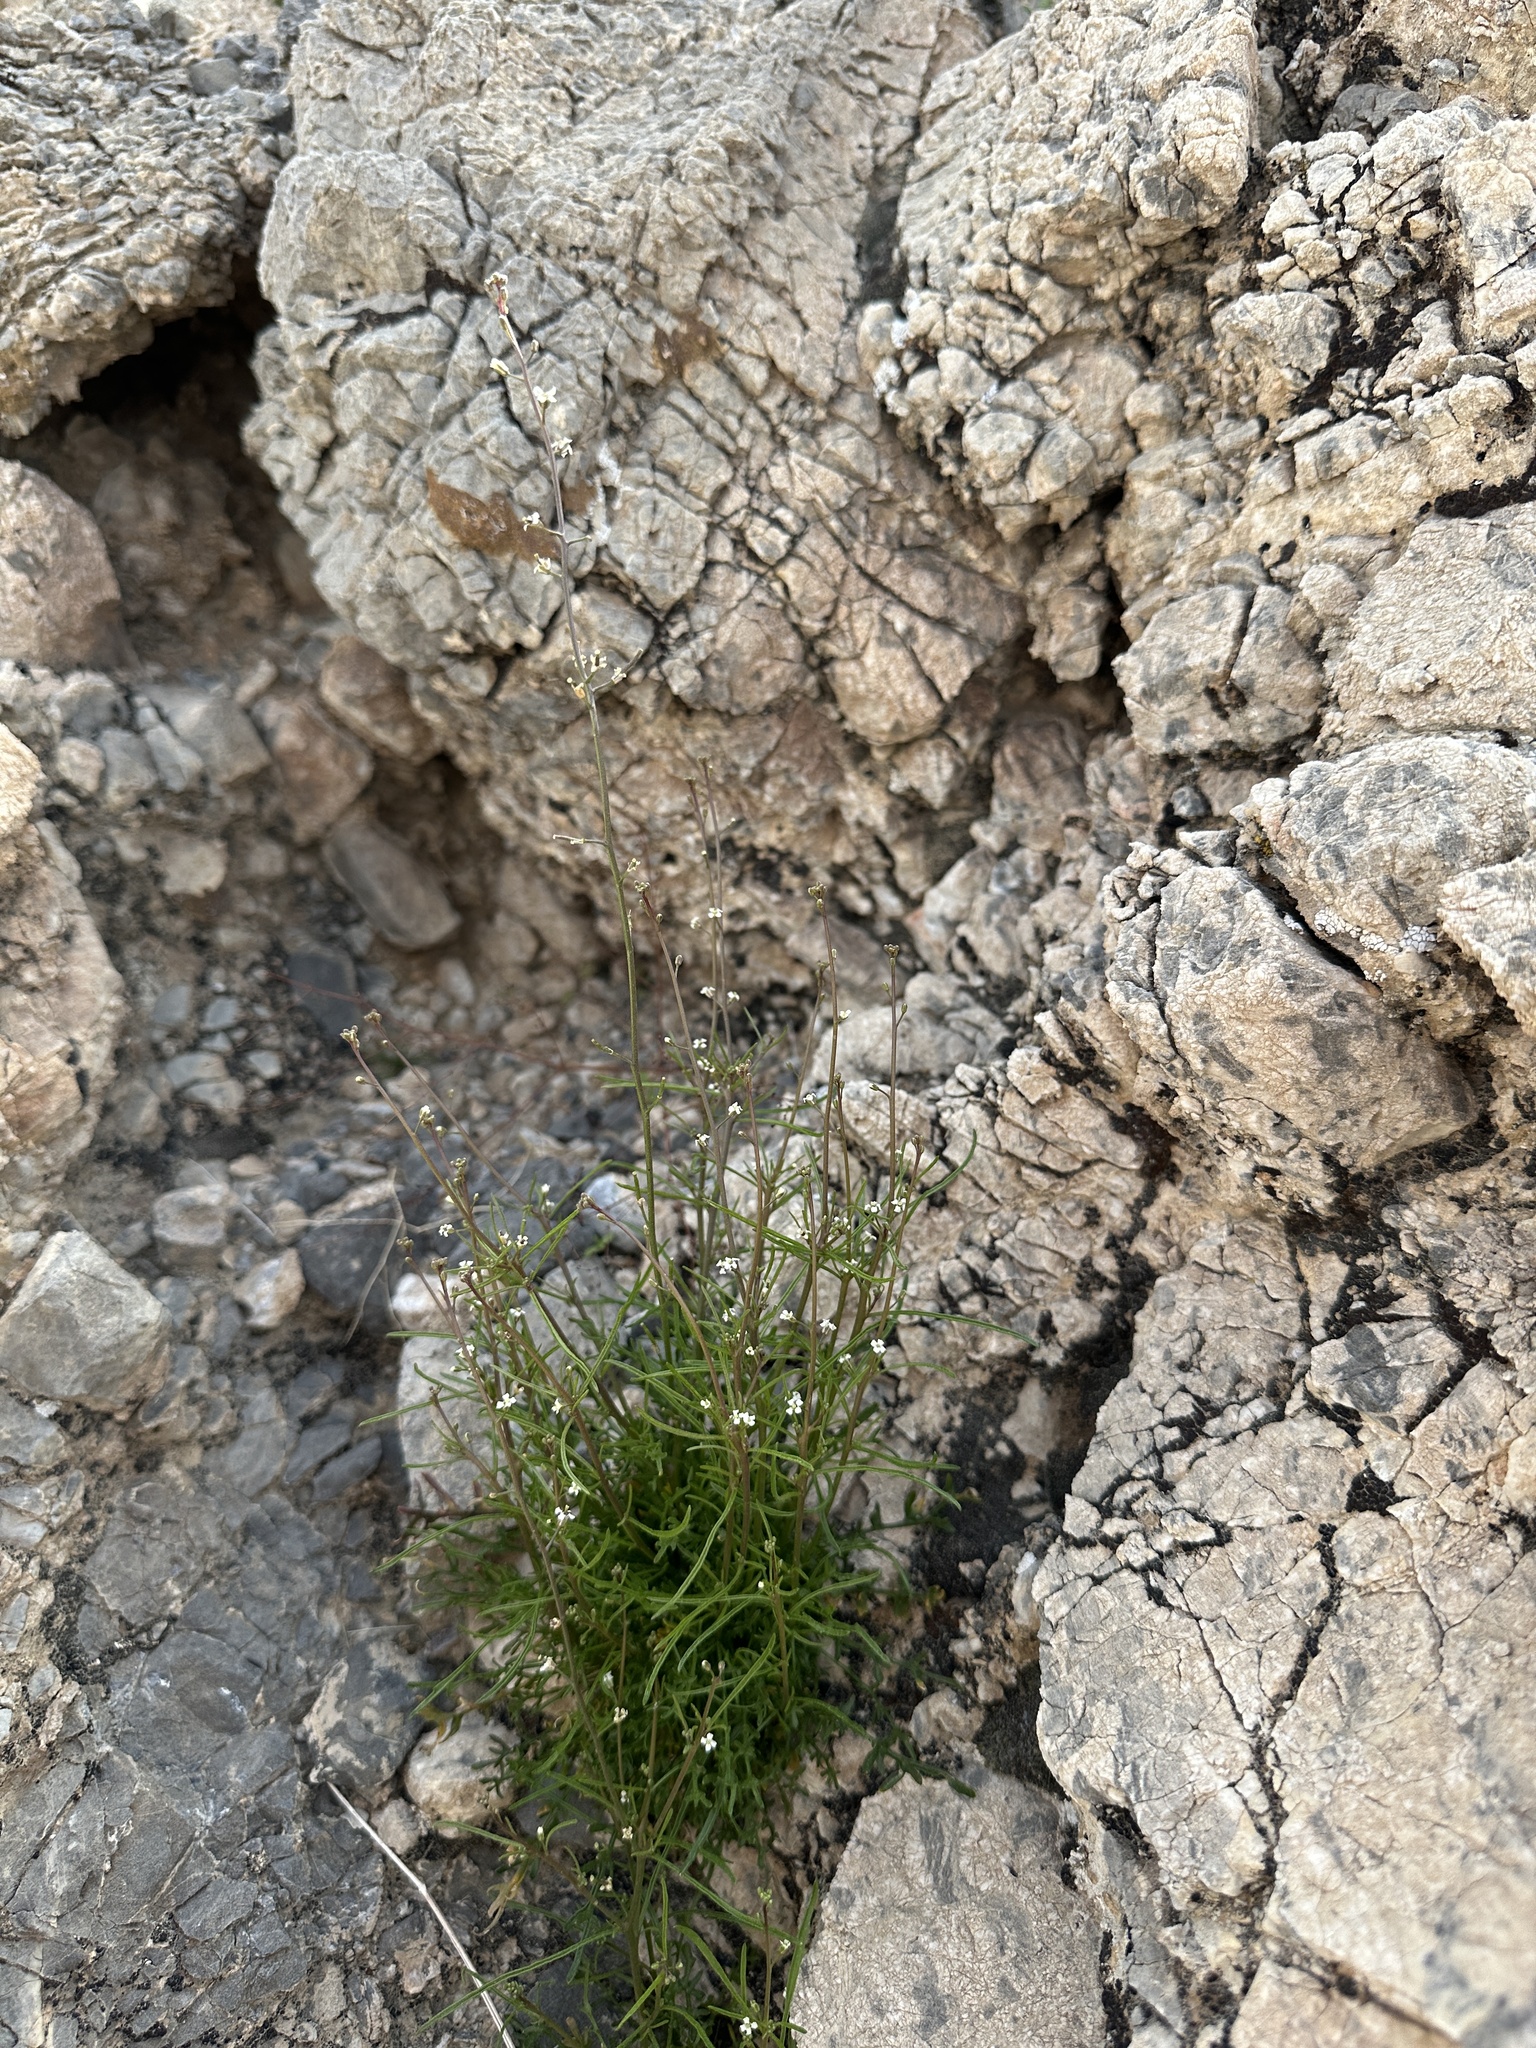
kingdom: Plantae
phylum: Tracheophyta
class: Magnoliopsida
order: Brassicales
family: Brassicaceae
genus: Sibara
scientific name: Sibara deserti
